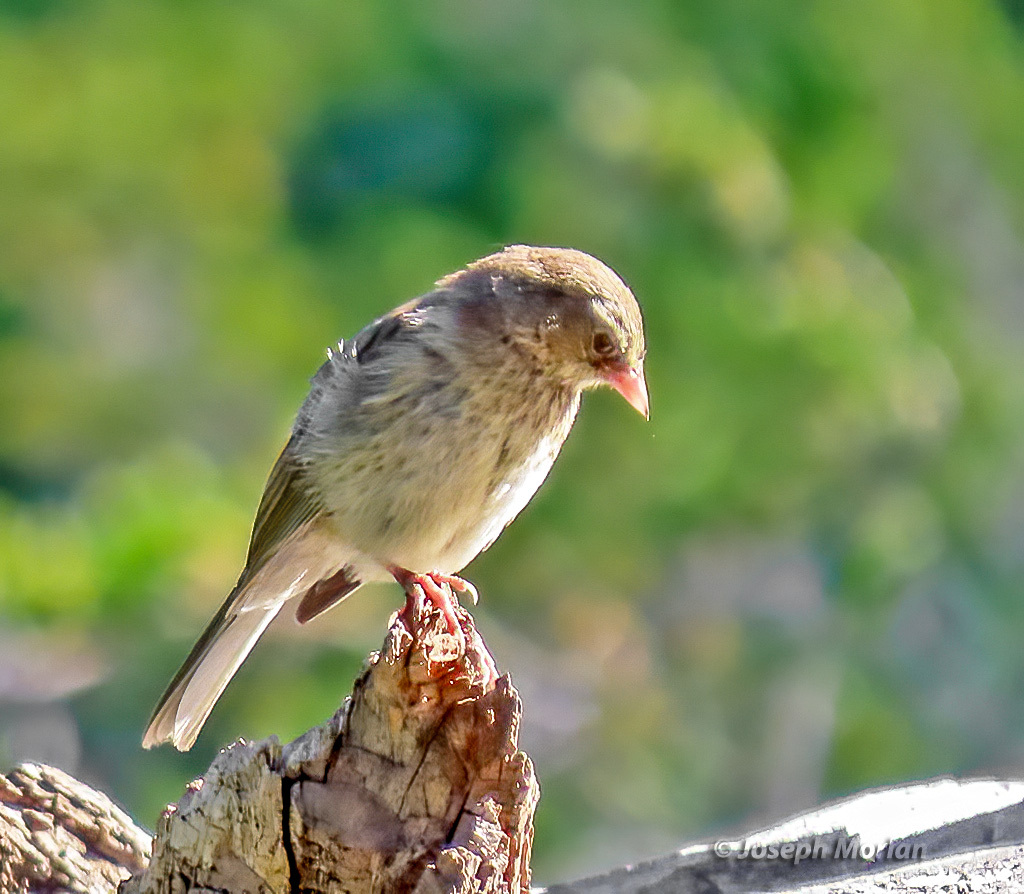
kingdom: Animalia
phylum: Chordata
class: Aves
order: Passeriformes
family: Passerellidae
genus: Junco
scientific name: Junco hyemalis
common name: Dark-eyed junco
